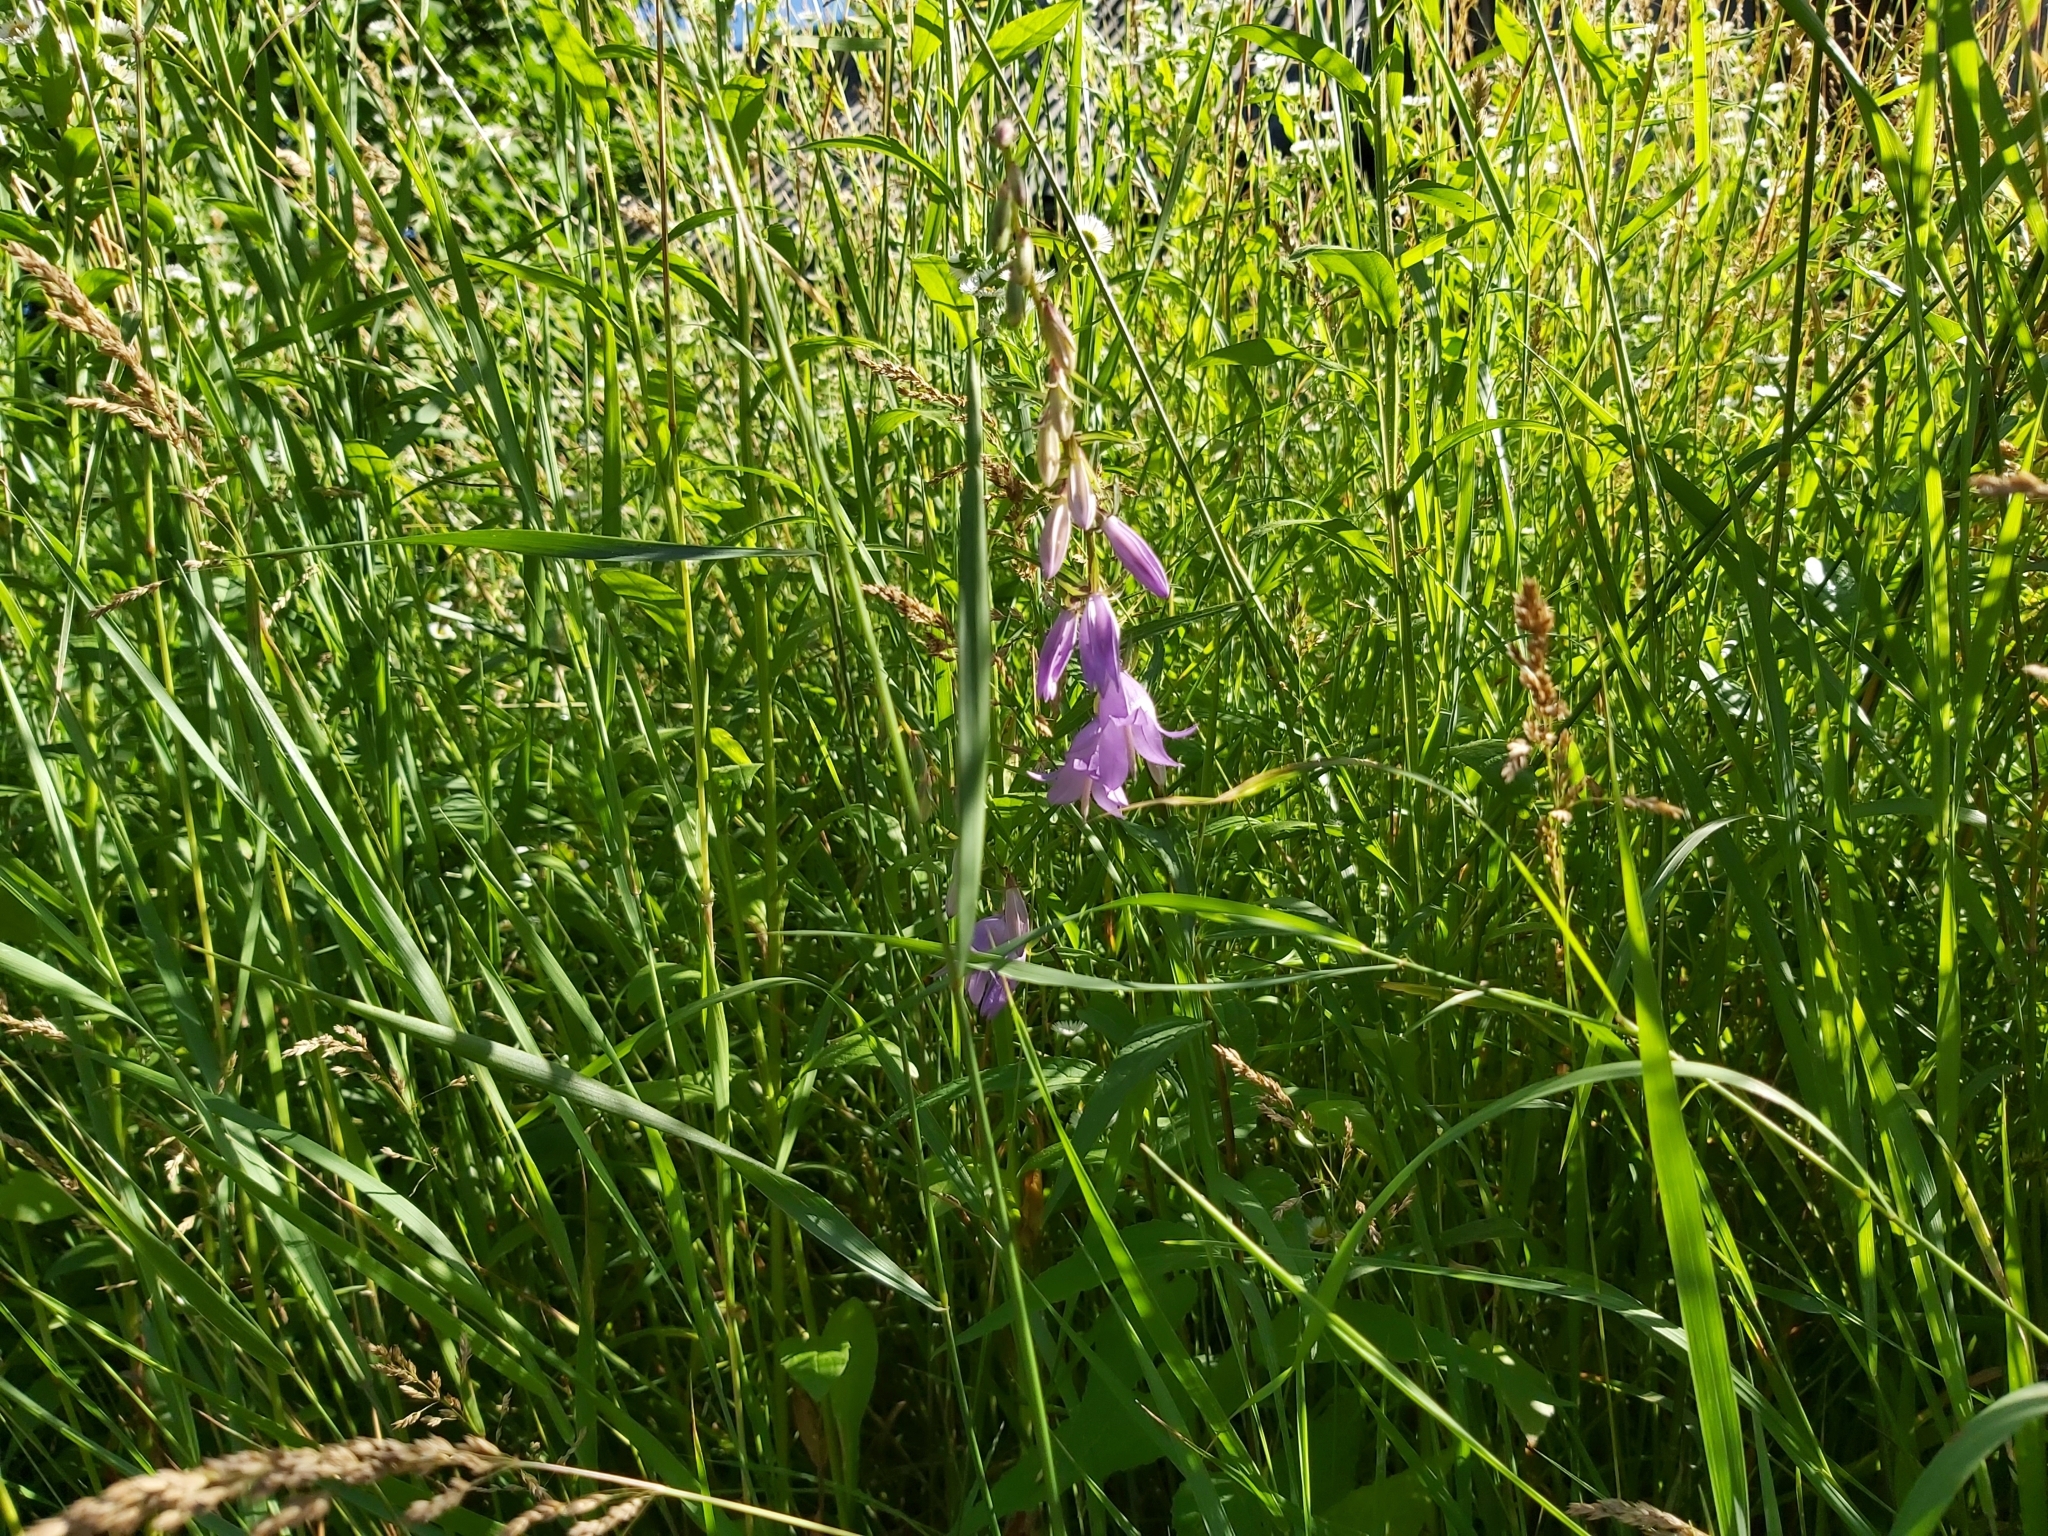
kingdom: Plantae
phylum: Tracheophyta
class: Magnoliopsida
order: Asterales
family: Campanulaceae
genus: Campanula
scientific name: Campanula rapunculoides
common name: Creeping bellflower
